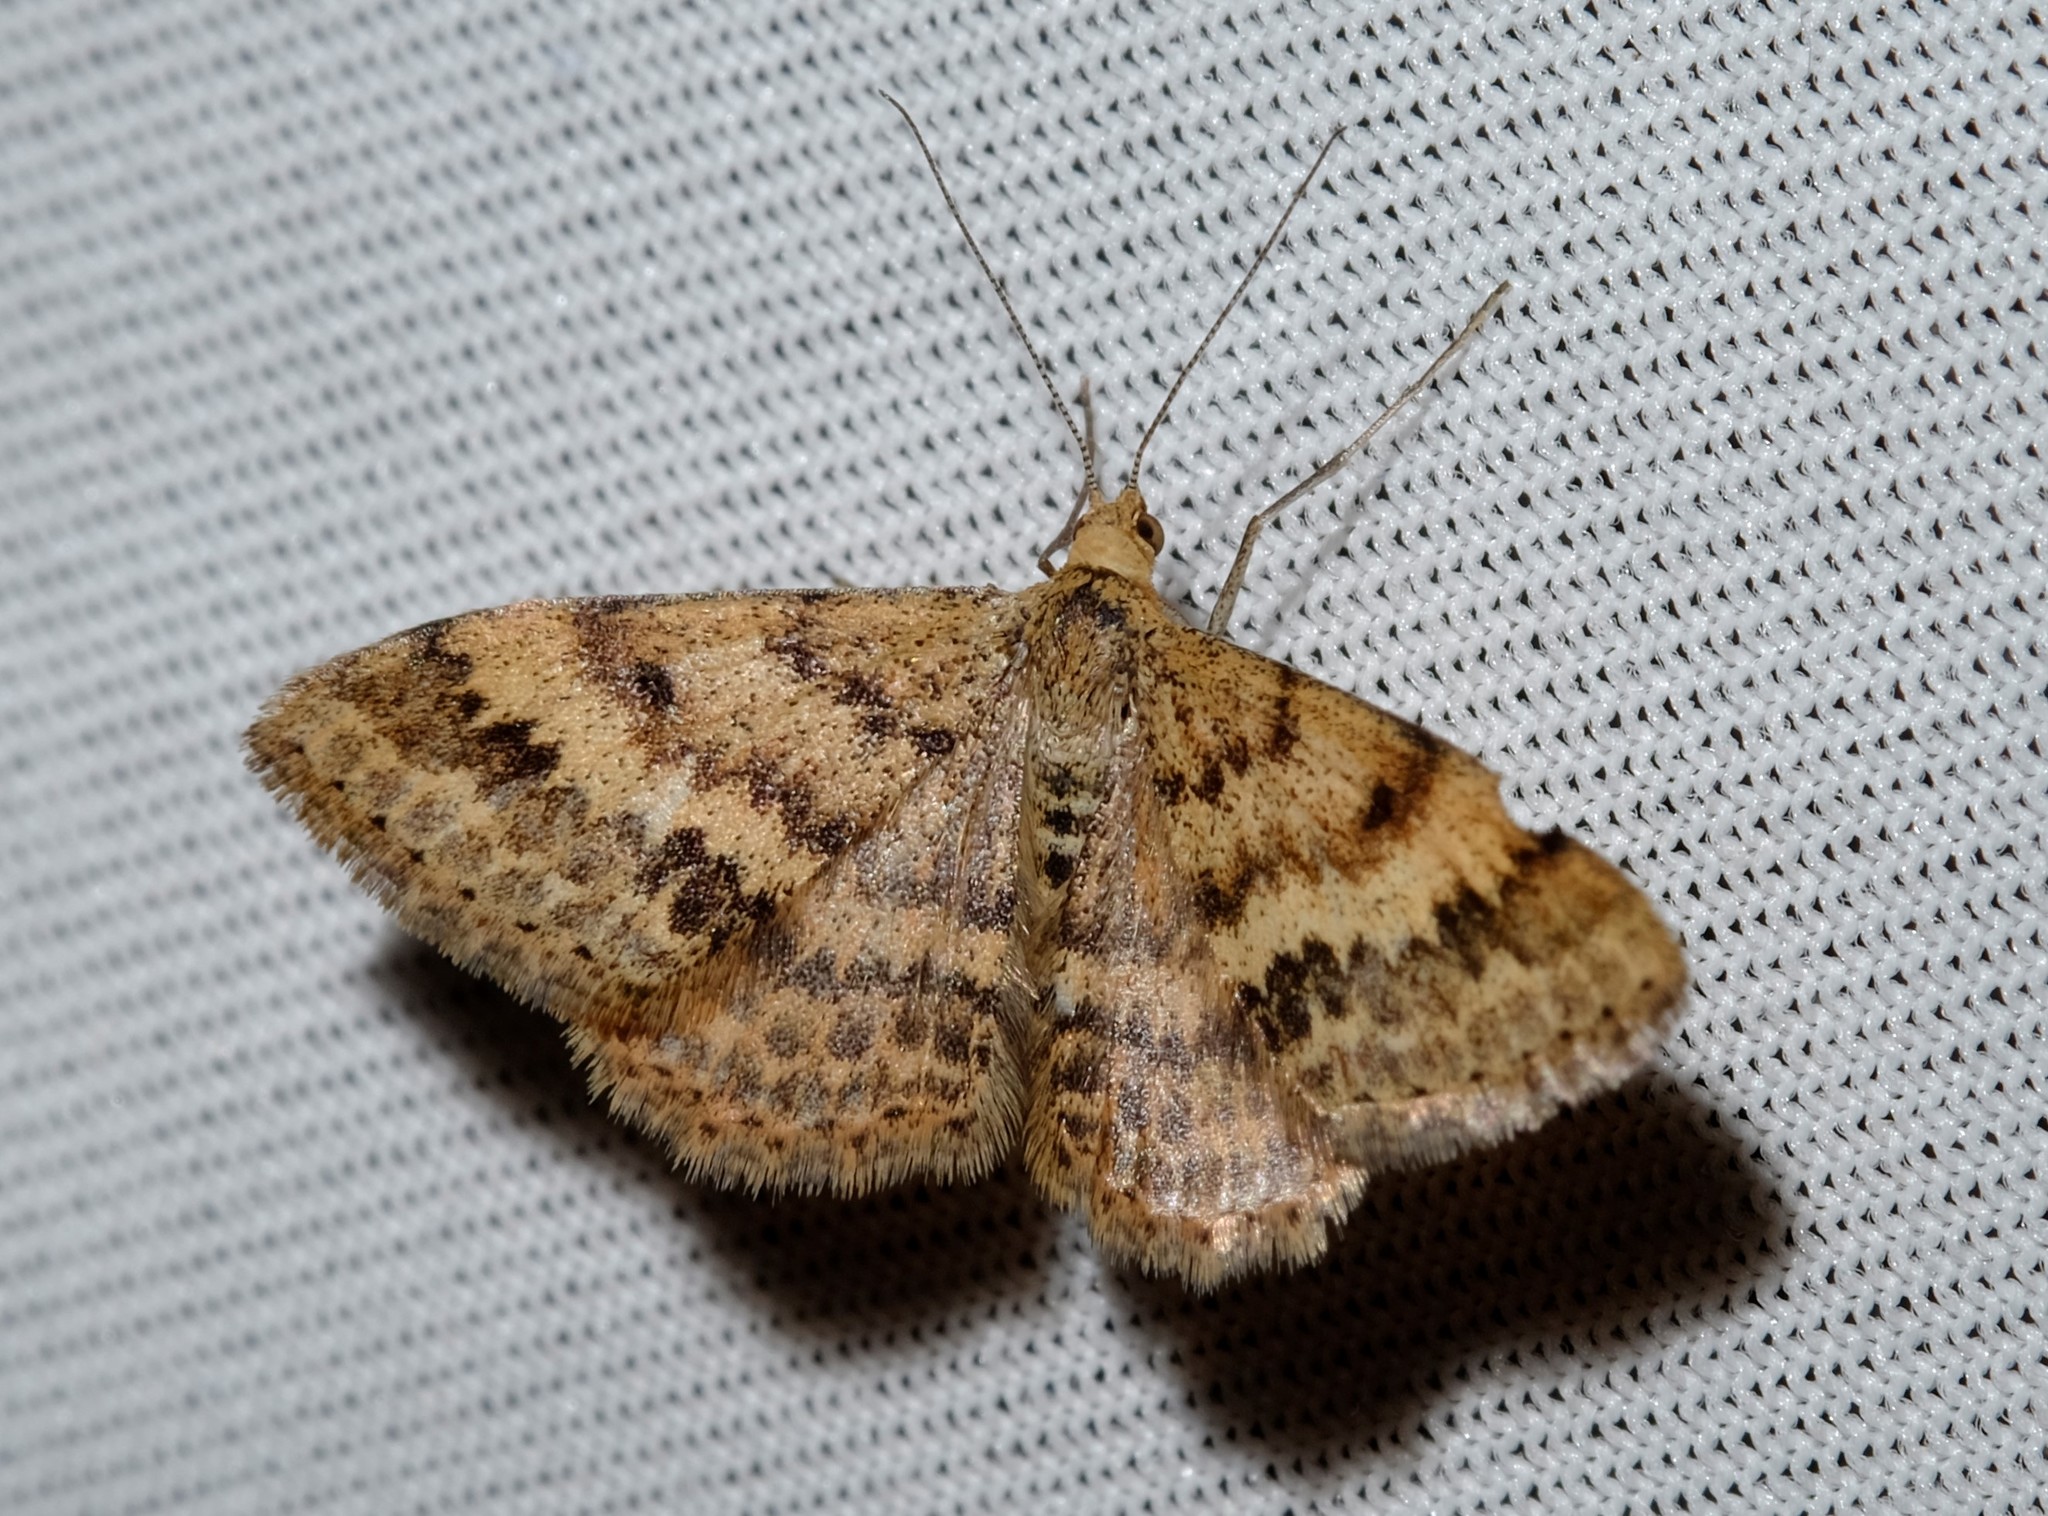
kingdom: Animalia
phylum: Arthropoda
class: Insecta
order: Lepidoptera
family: Geometridae
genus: Scopula
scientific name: Scopula rubraria
